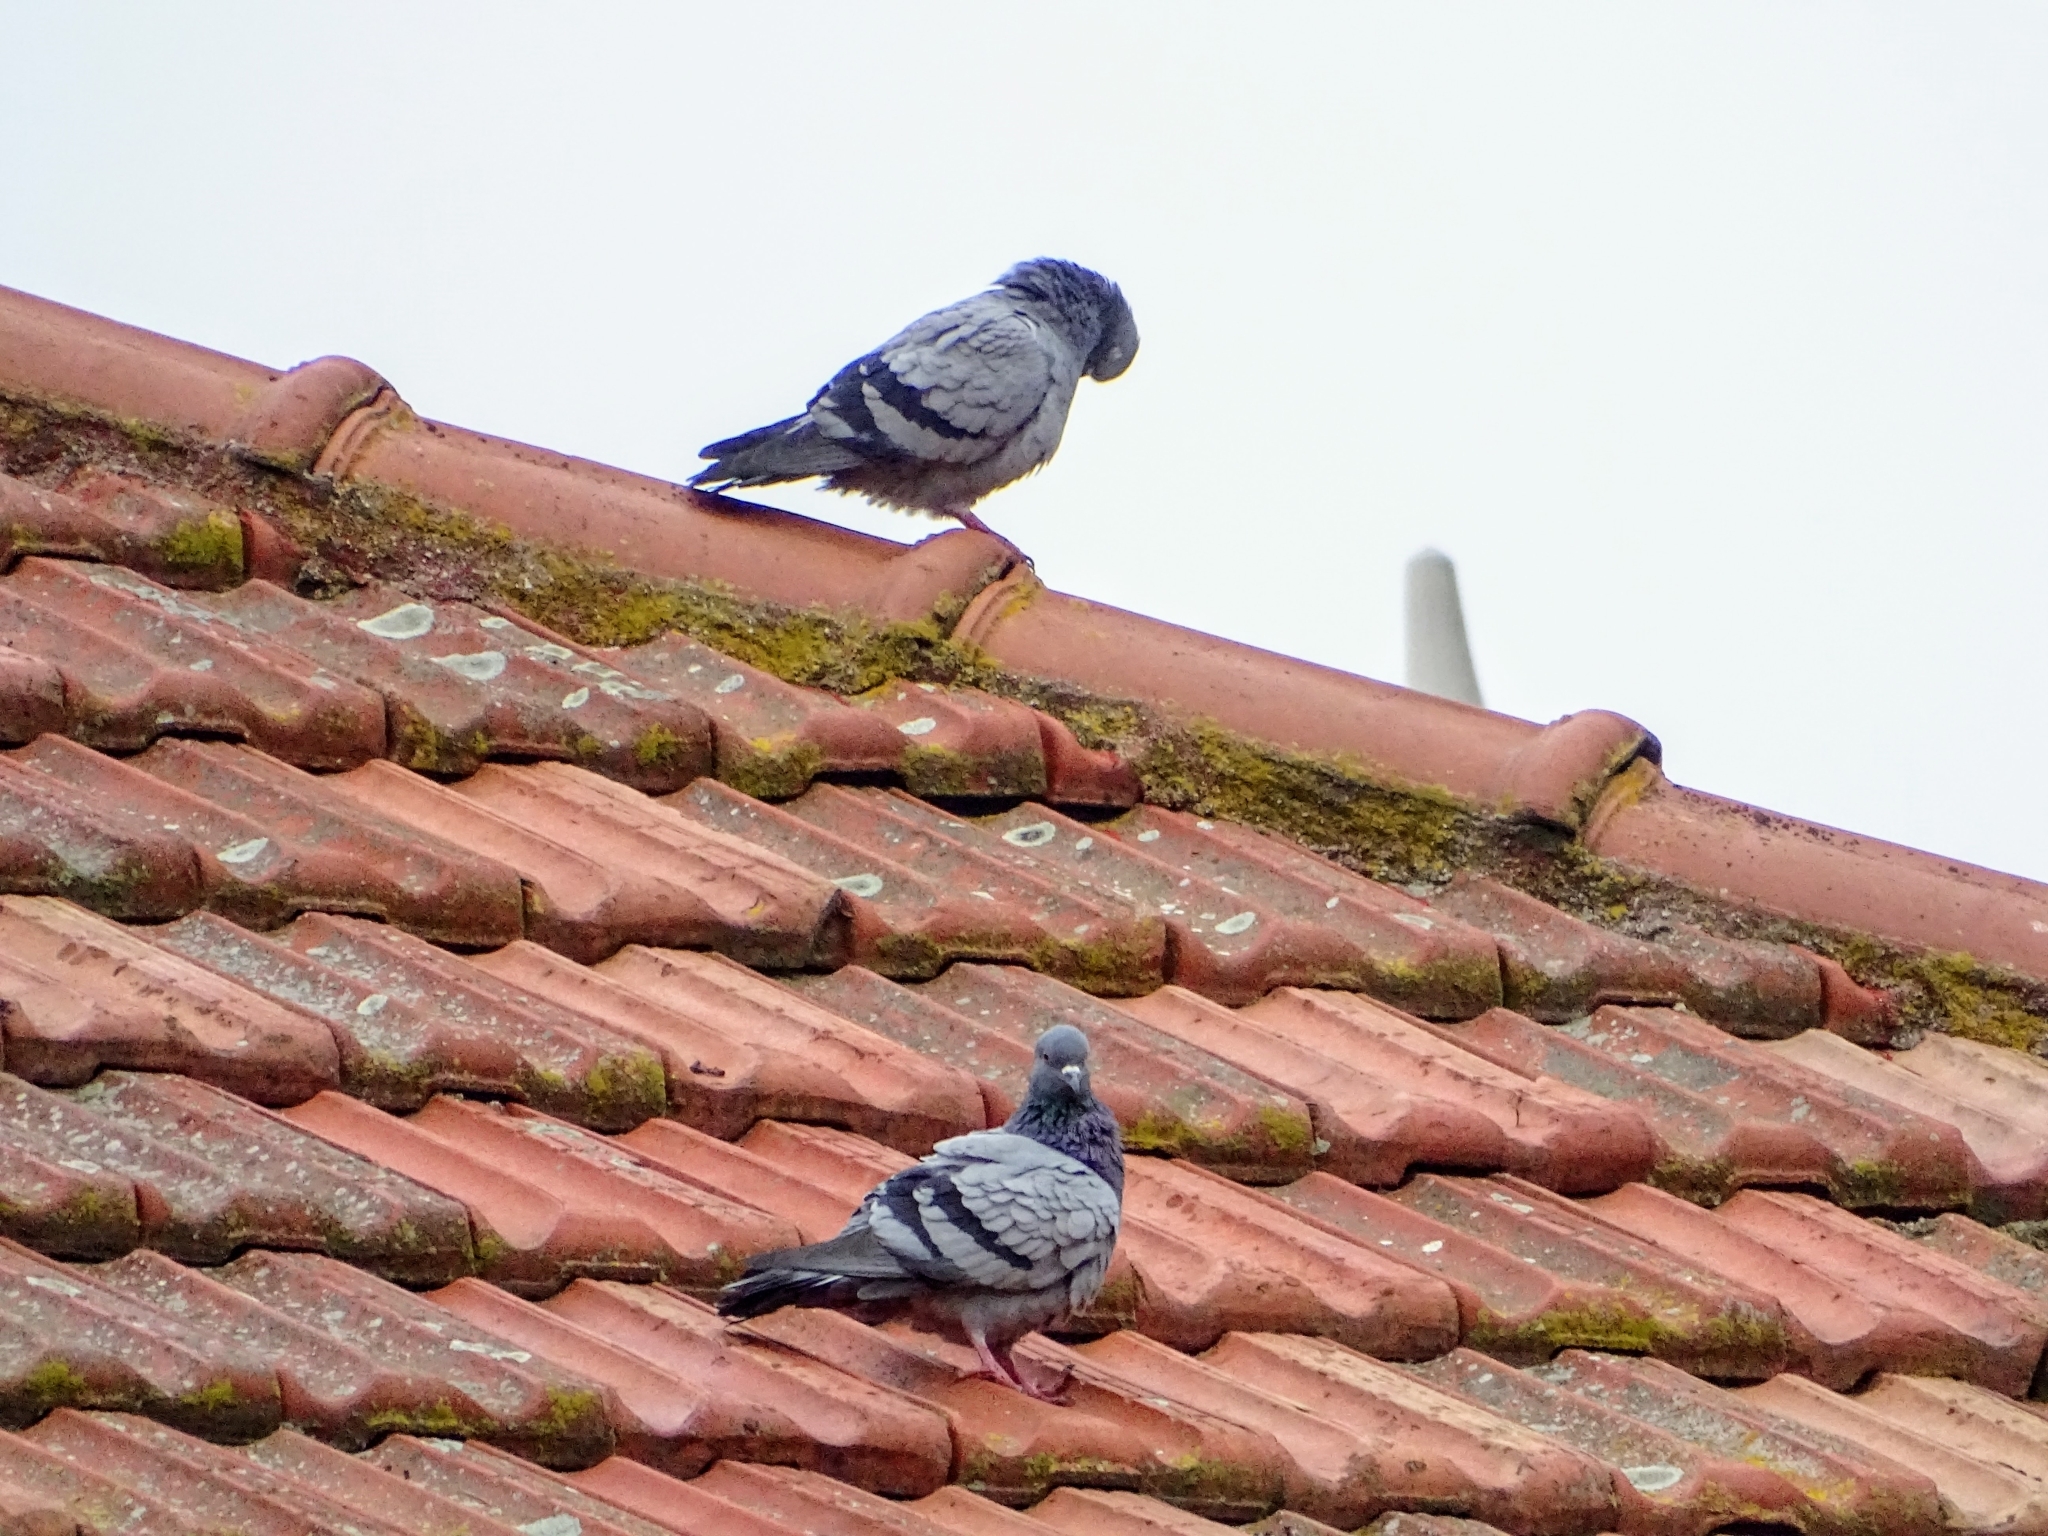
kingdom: Animalia
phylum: Chordata
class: Aves
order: Columbiformes
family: Columbidae
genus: Columba
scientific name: Columba livia
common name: Rock pigeon
